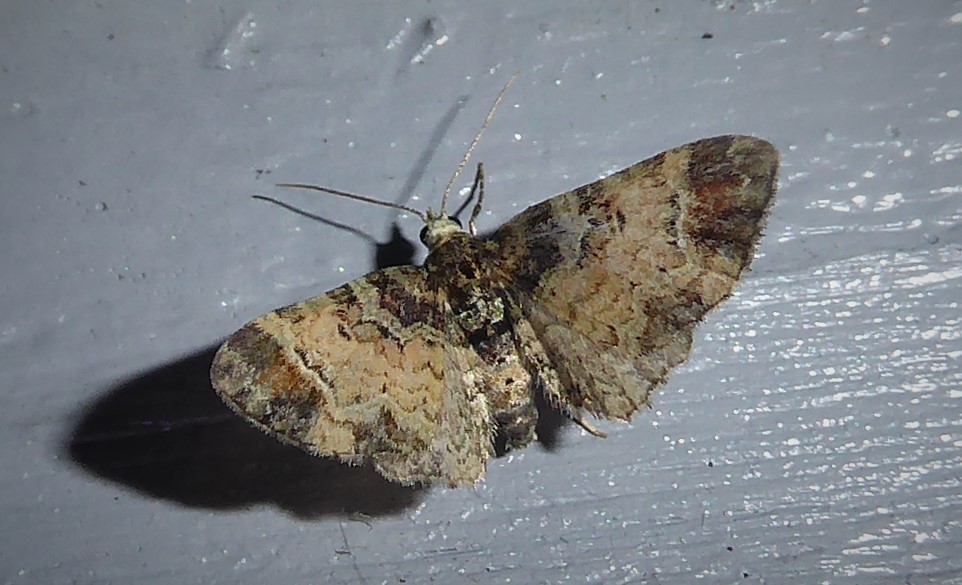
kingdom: Animalia
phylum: Arthropoda
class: Insecta
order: Lepidoptera
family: Geometridae
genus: Pasiphila
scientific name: Pasiphila sandycias
